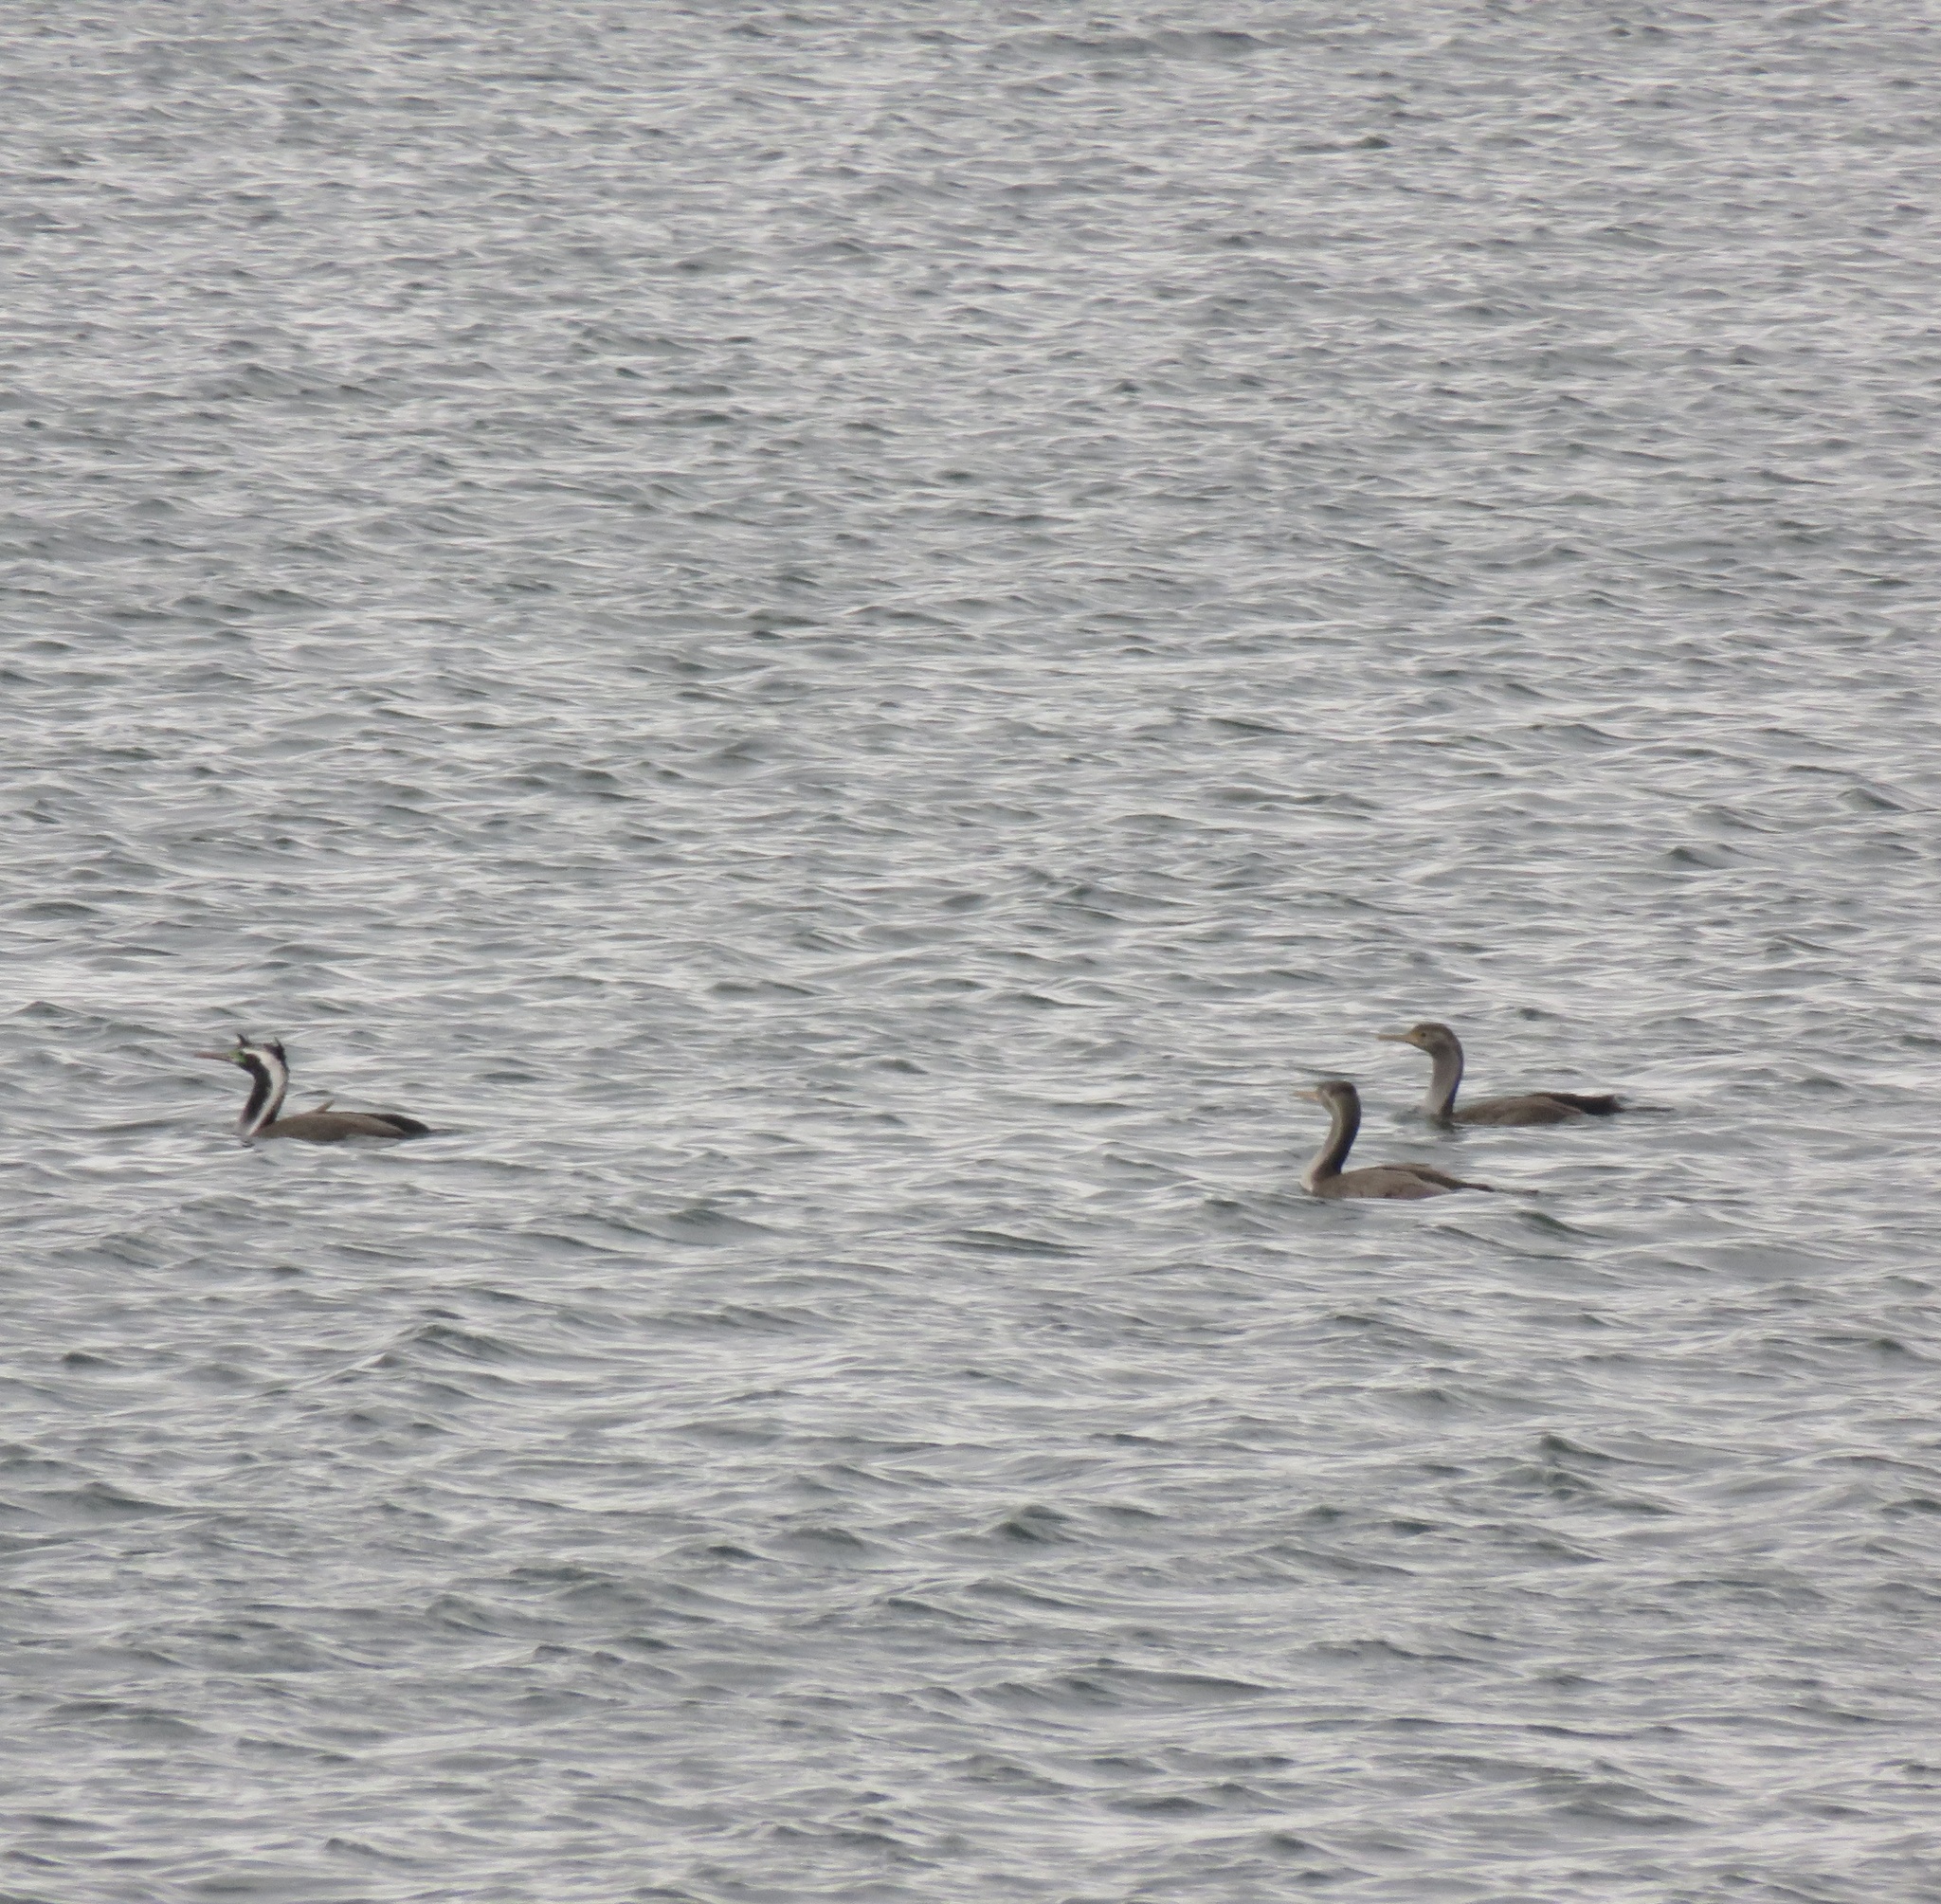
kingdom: Animalia
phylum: Chordata
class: Aves
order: Suliformes
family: Phalacrocoracidae
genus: Phalacrocorax
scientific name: Phalacrocorax punctatus
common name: Spotted shag
